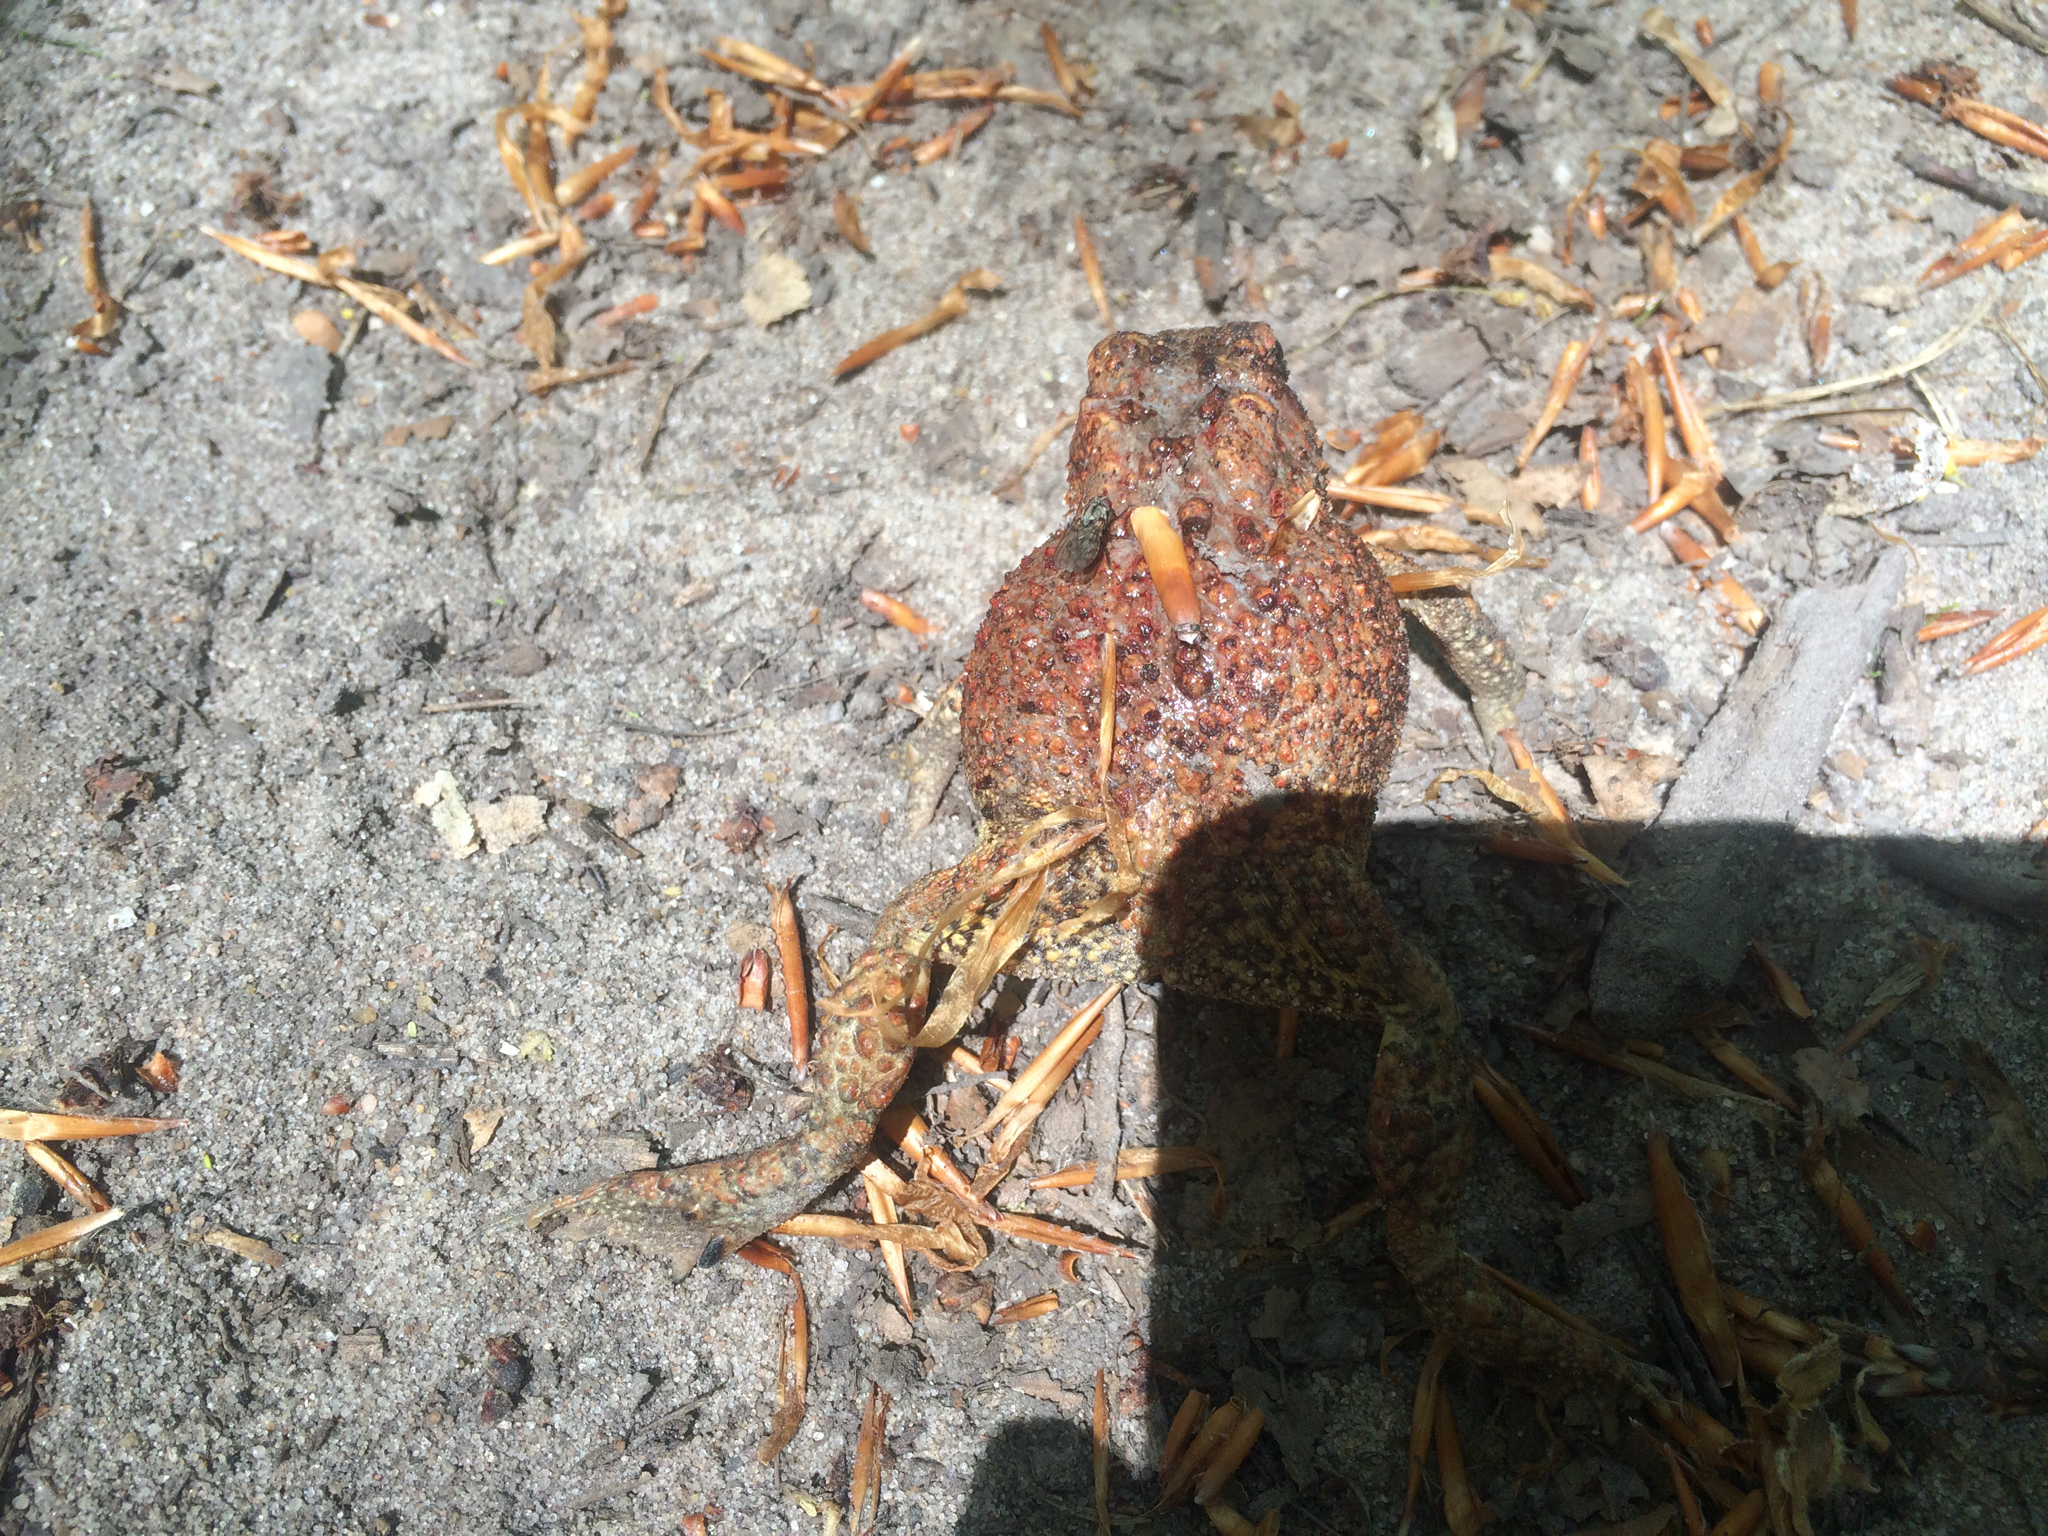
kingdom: Animalia
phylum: Chordata
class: Amphibia
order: Anura
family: Bufonidae
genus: Anaxyrus
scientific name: Anaxyrus americanus
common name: American toad
